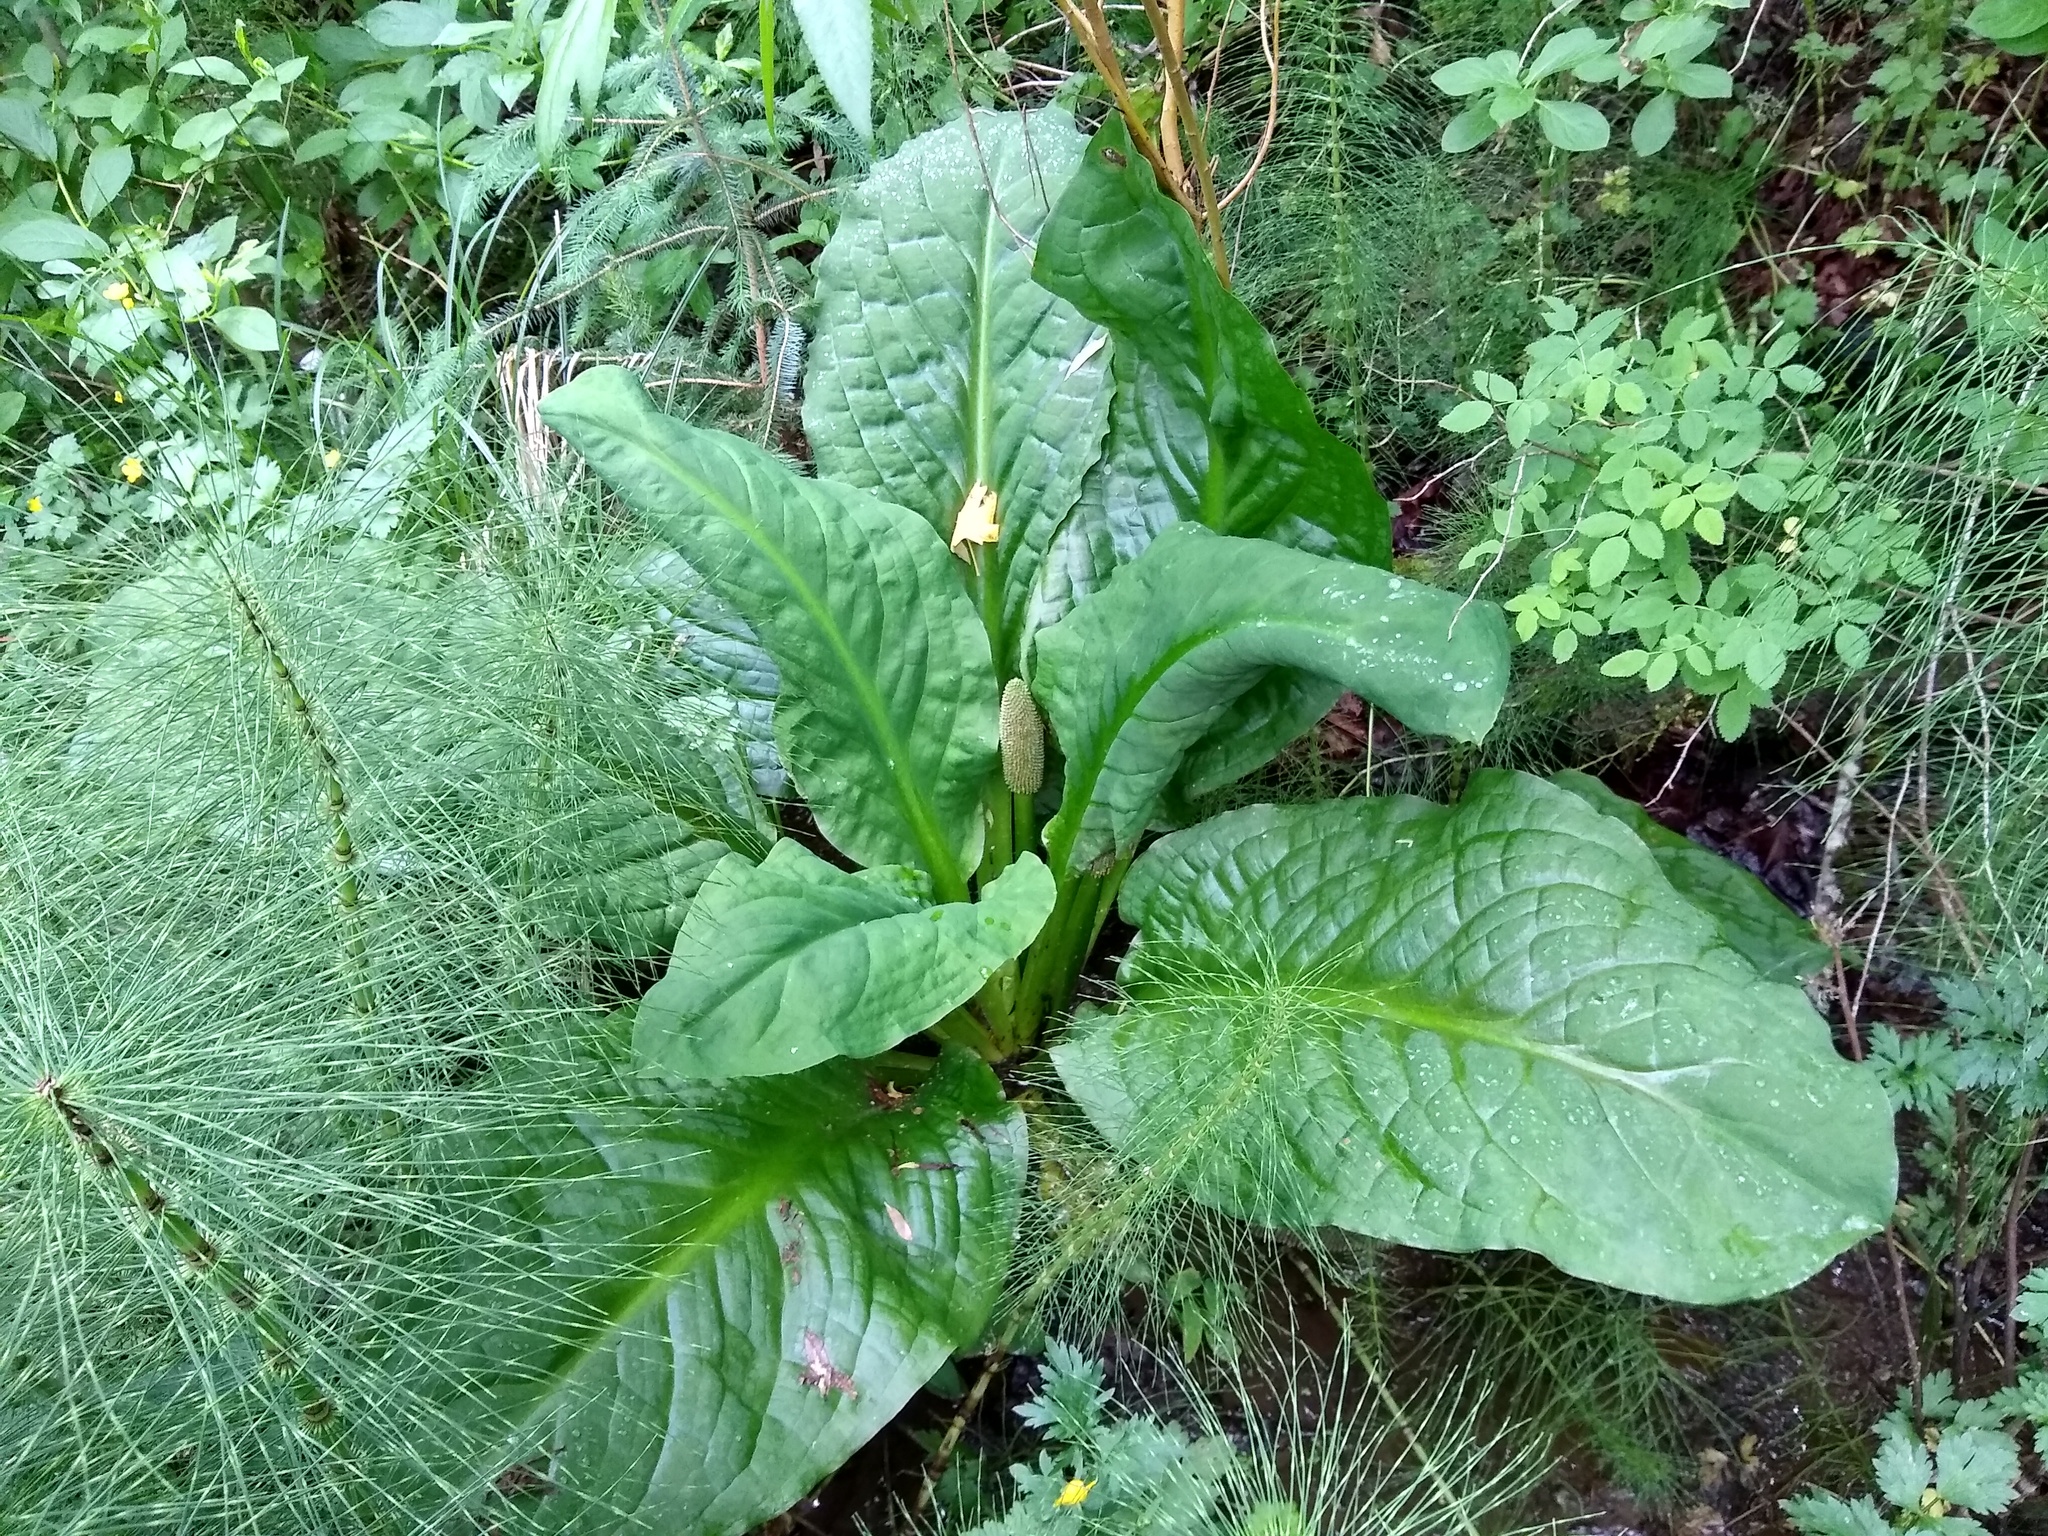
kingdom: Plantae
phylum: Tracheophyta
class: Liliopsida
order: Alismatales
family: Araceae
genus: Lysichiton
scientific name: Lysichiton americanus
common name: American skunk cabbage
